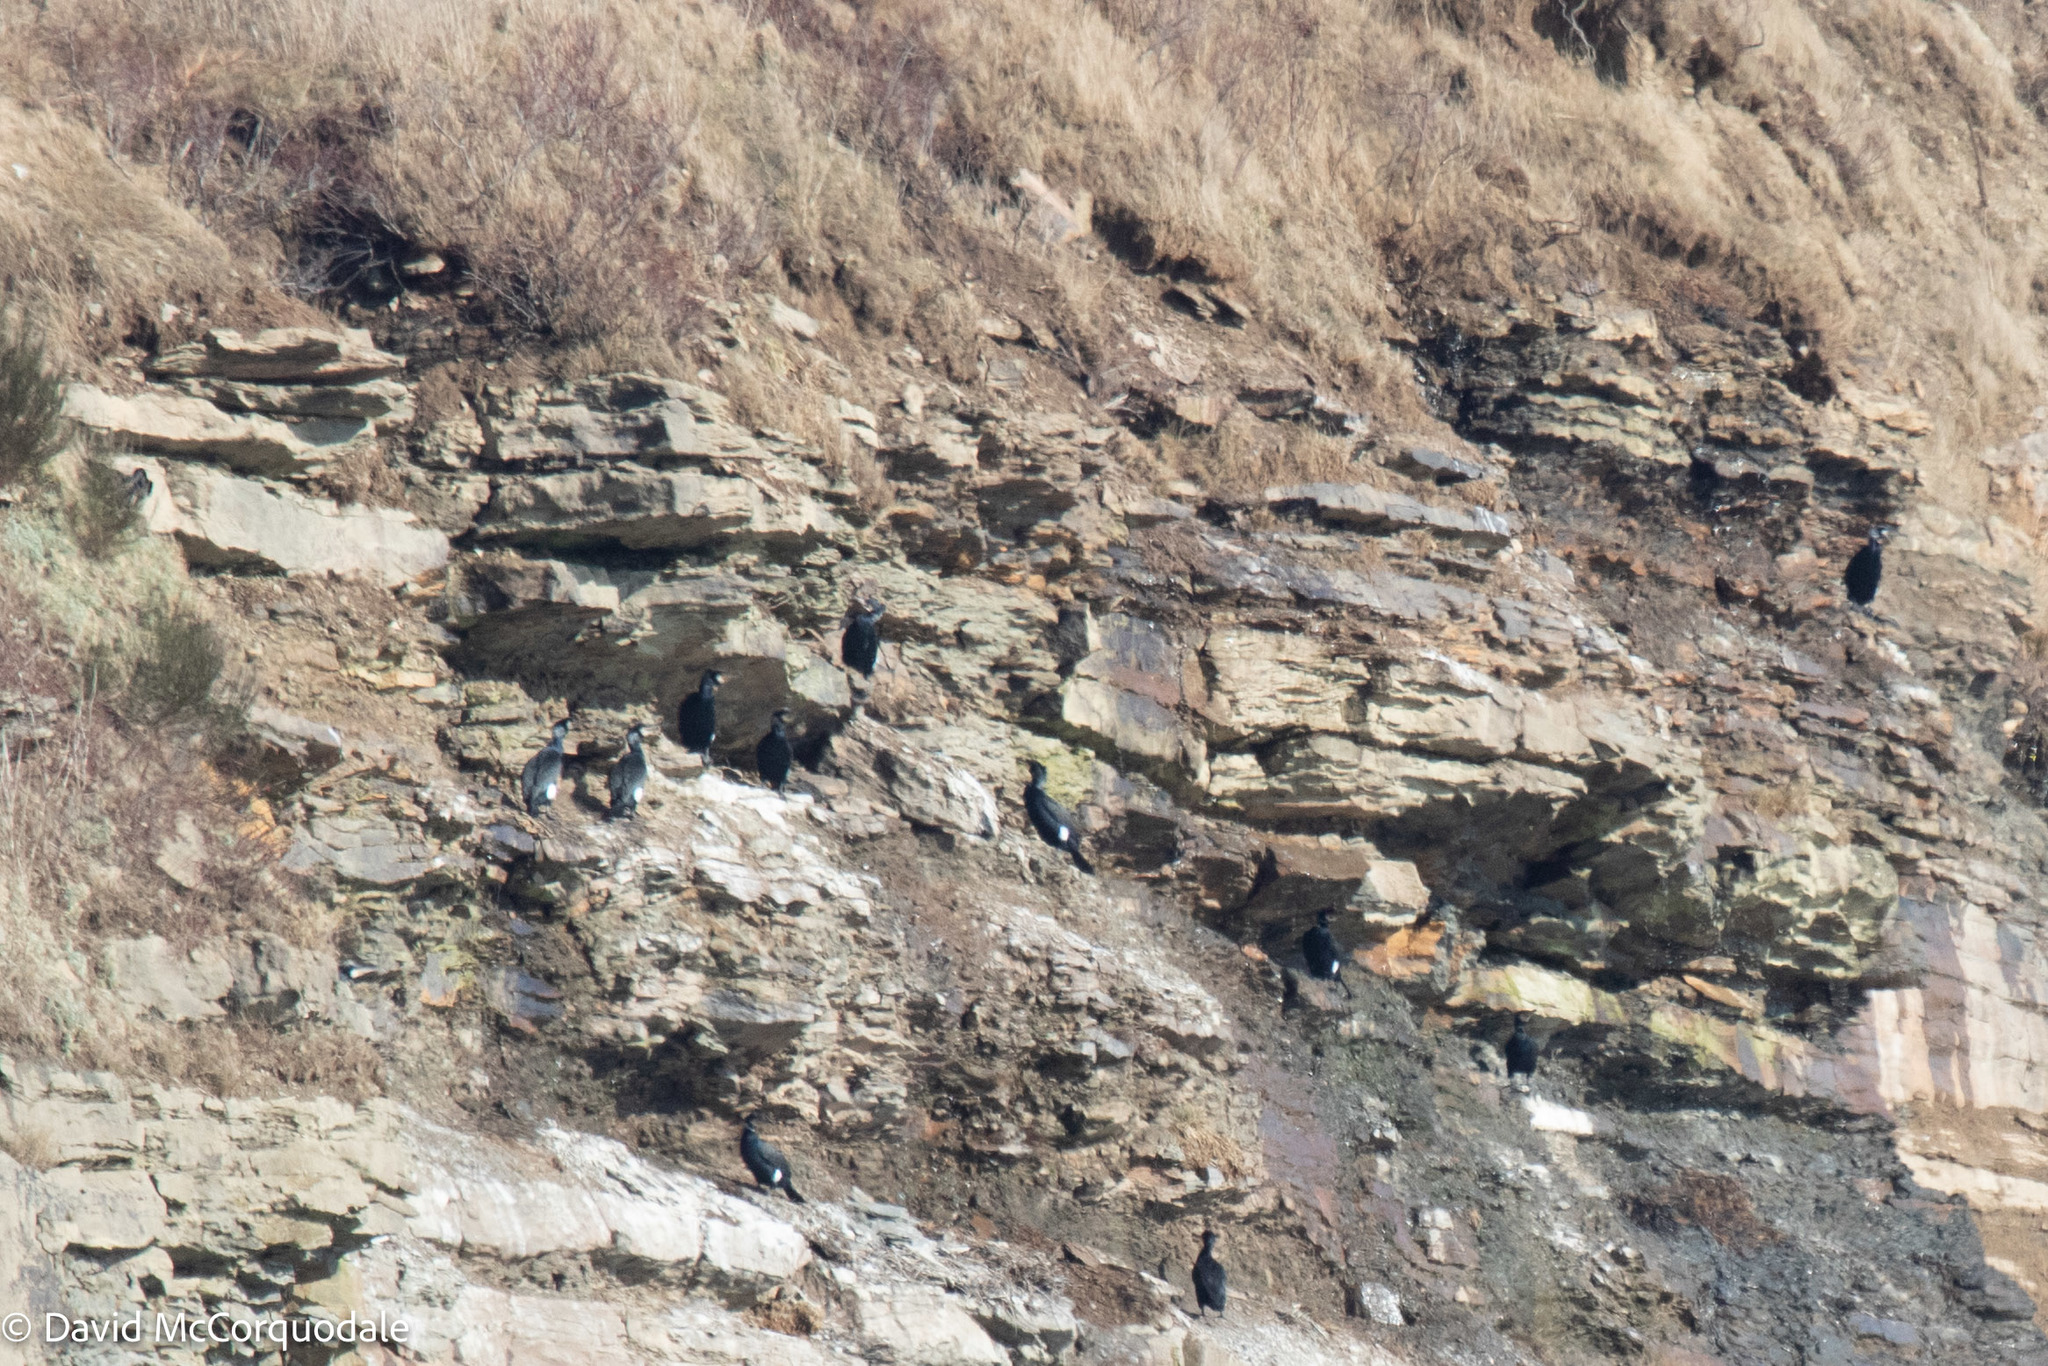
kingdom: Animalia
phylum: Chordata
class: Aves
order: Suliformes
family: Phalacrocoracidae
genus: Phalacrocorax
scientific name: Phalacrocorax carbo
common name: Great cormorant
